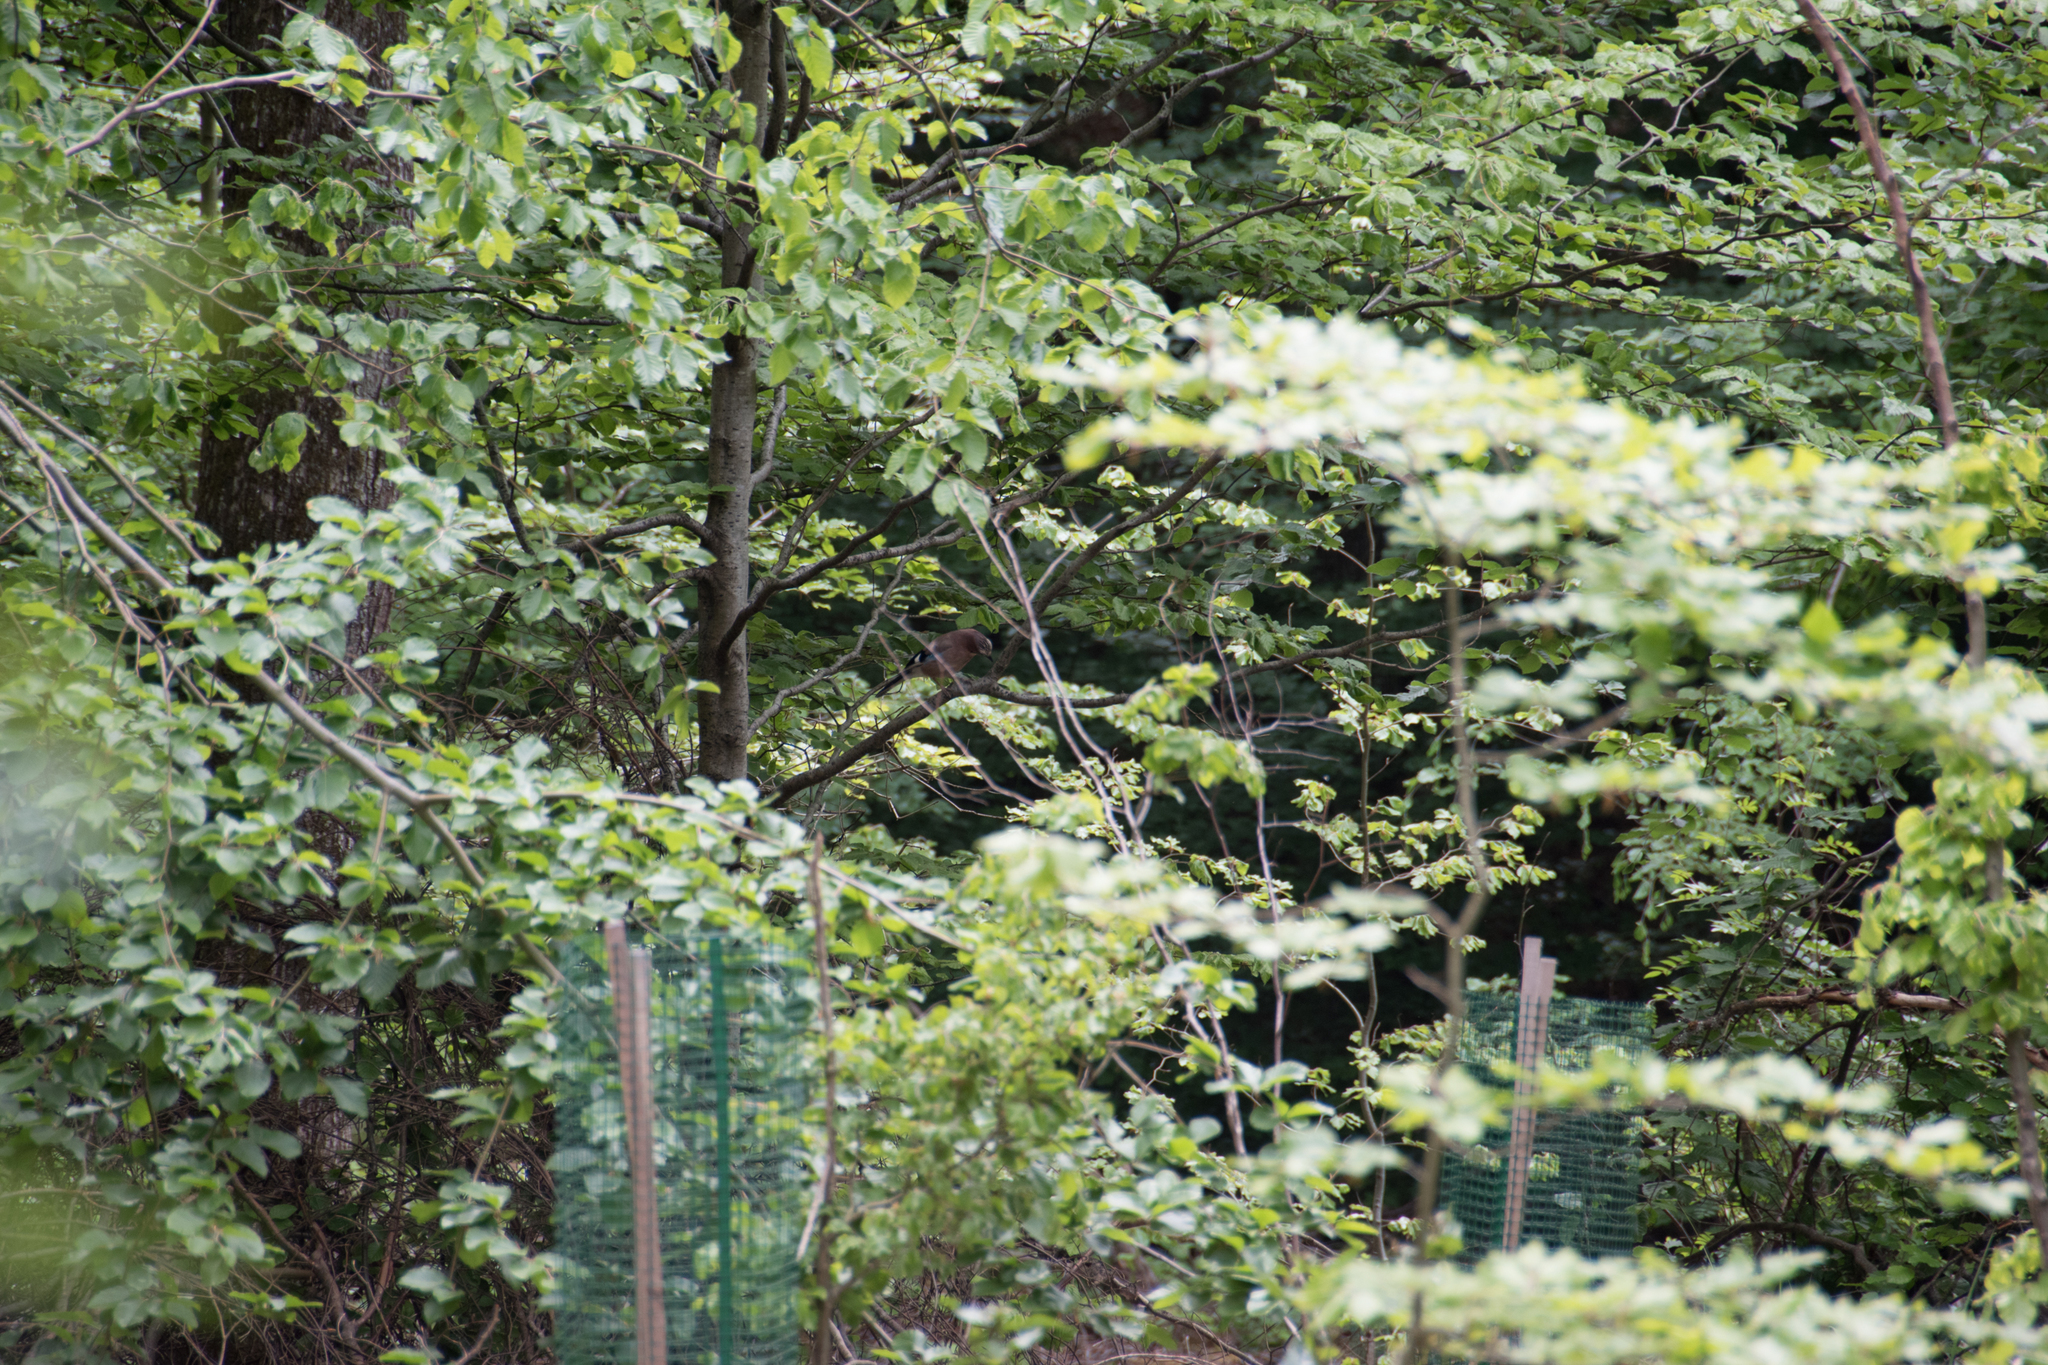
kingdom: Animalia
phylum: Chordata
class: Aves
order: Passeriformes
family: Corvidae
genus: Garrulus
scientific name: Garrulus glandarius
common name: Eurasian jay
